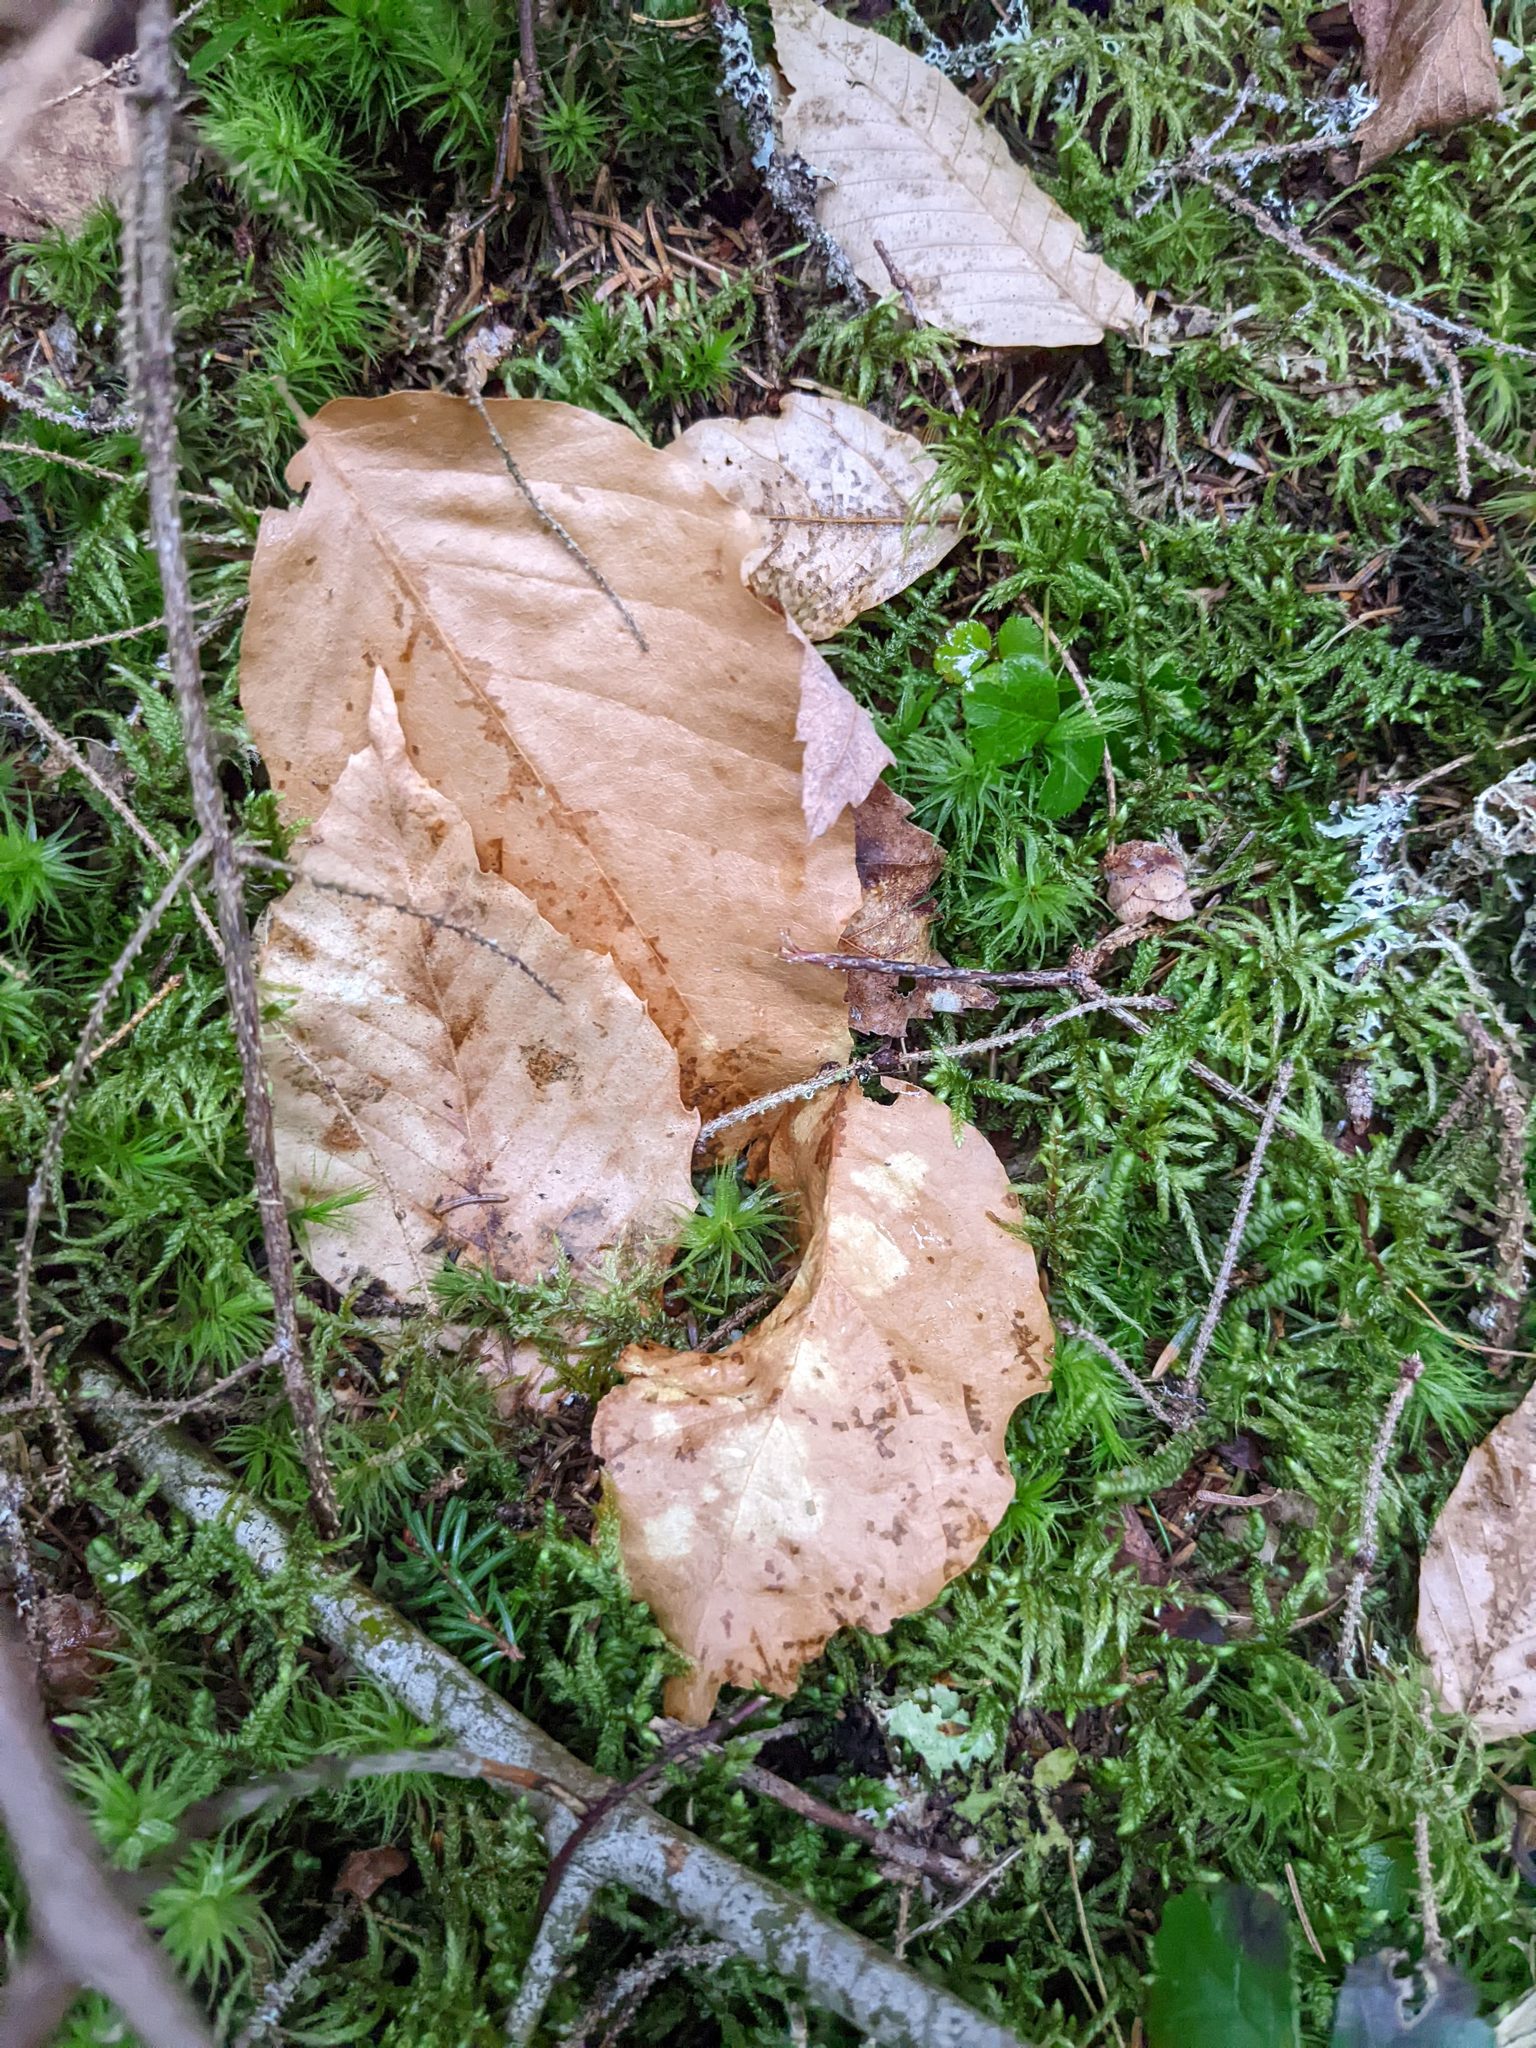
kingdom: Plantae
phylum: Tracheophyta
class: Magnoliopsida
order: Fagales
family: Fagaceae
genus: Fagus
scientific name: Fagus grandifolia
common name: American beech
